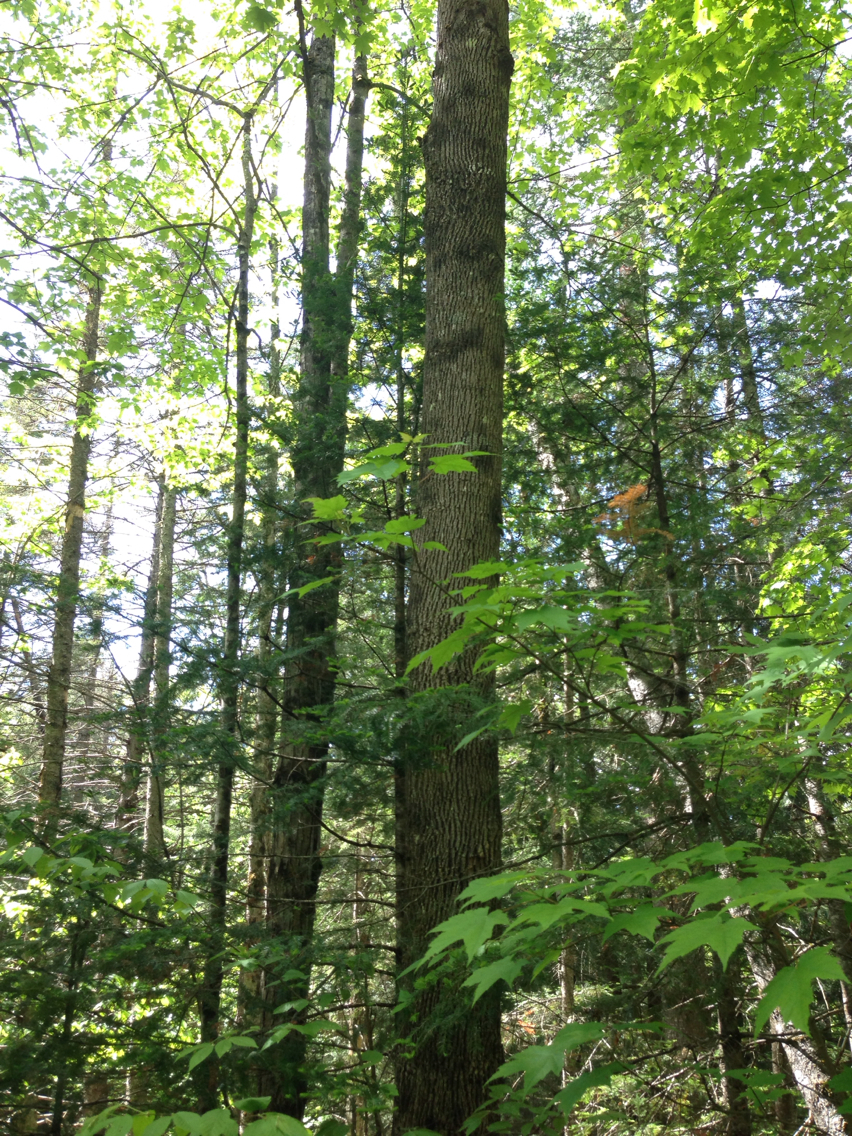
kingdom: Plantae
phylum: Tracheophyta
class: Magnoliopsida
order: Lamiales
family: Oleaceae
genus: Fraxinus
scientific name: Fraxinus americana
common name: White ash
